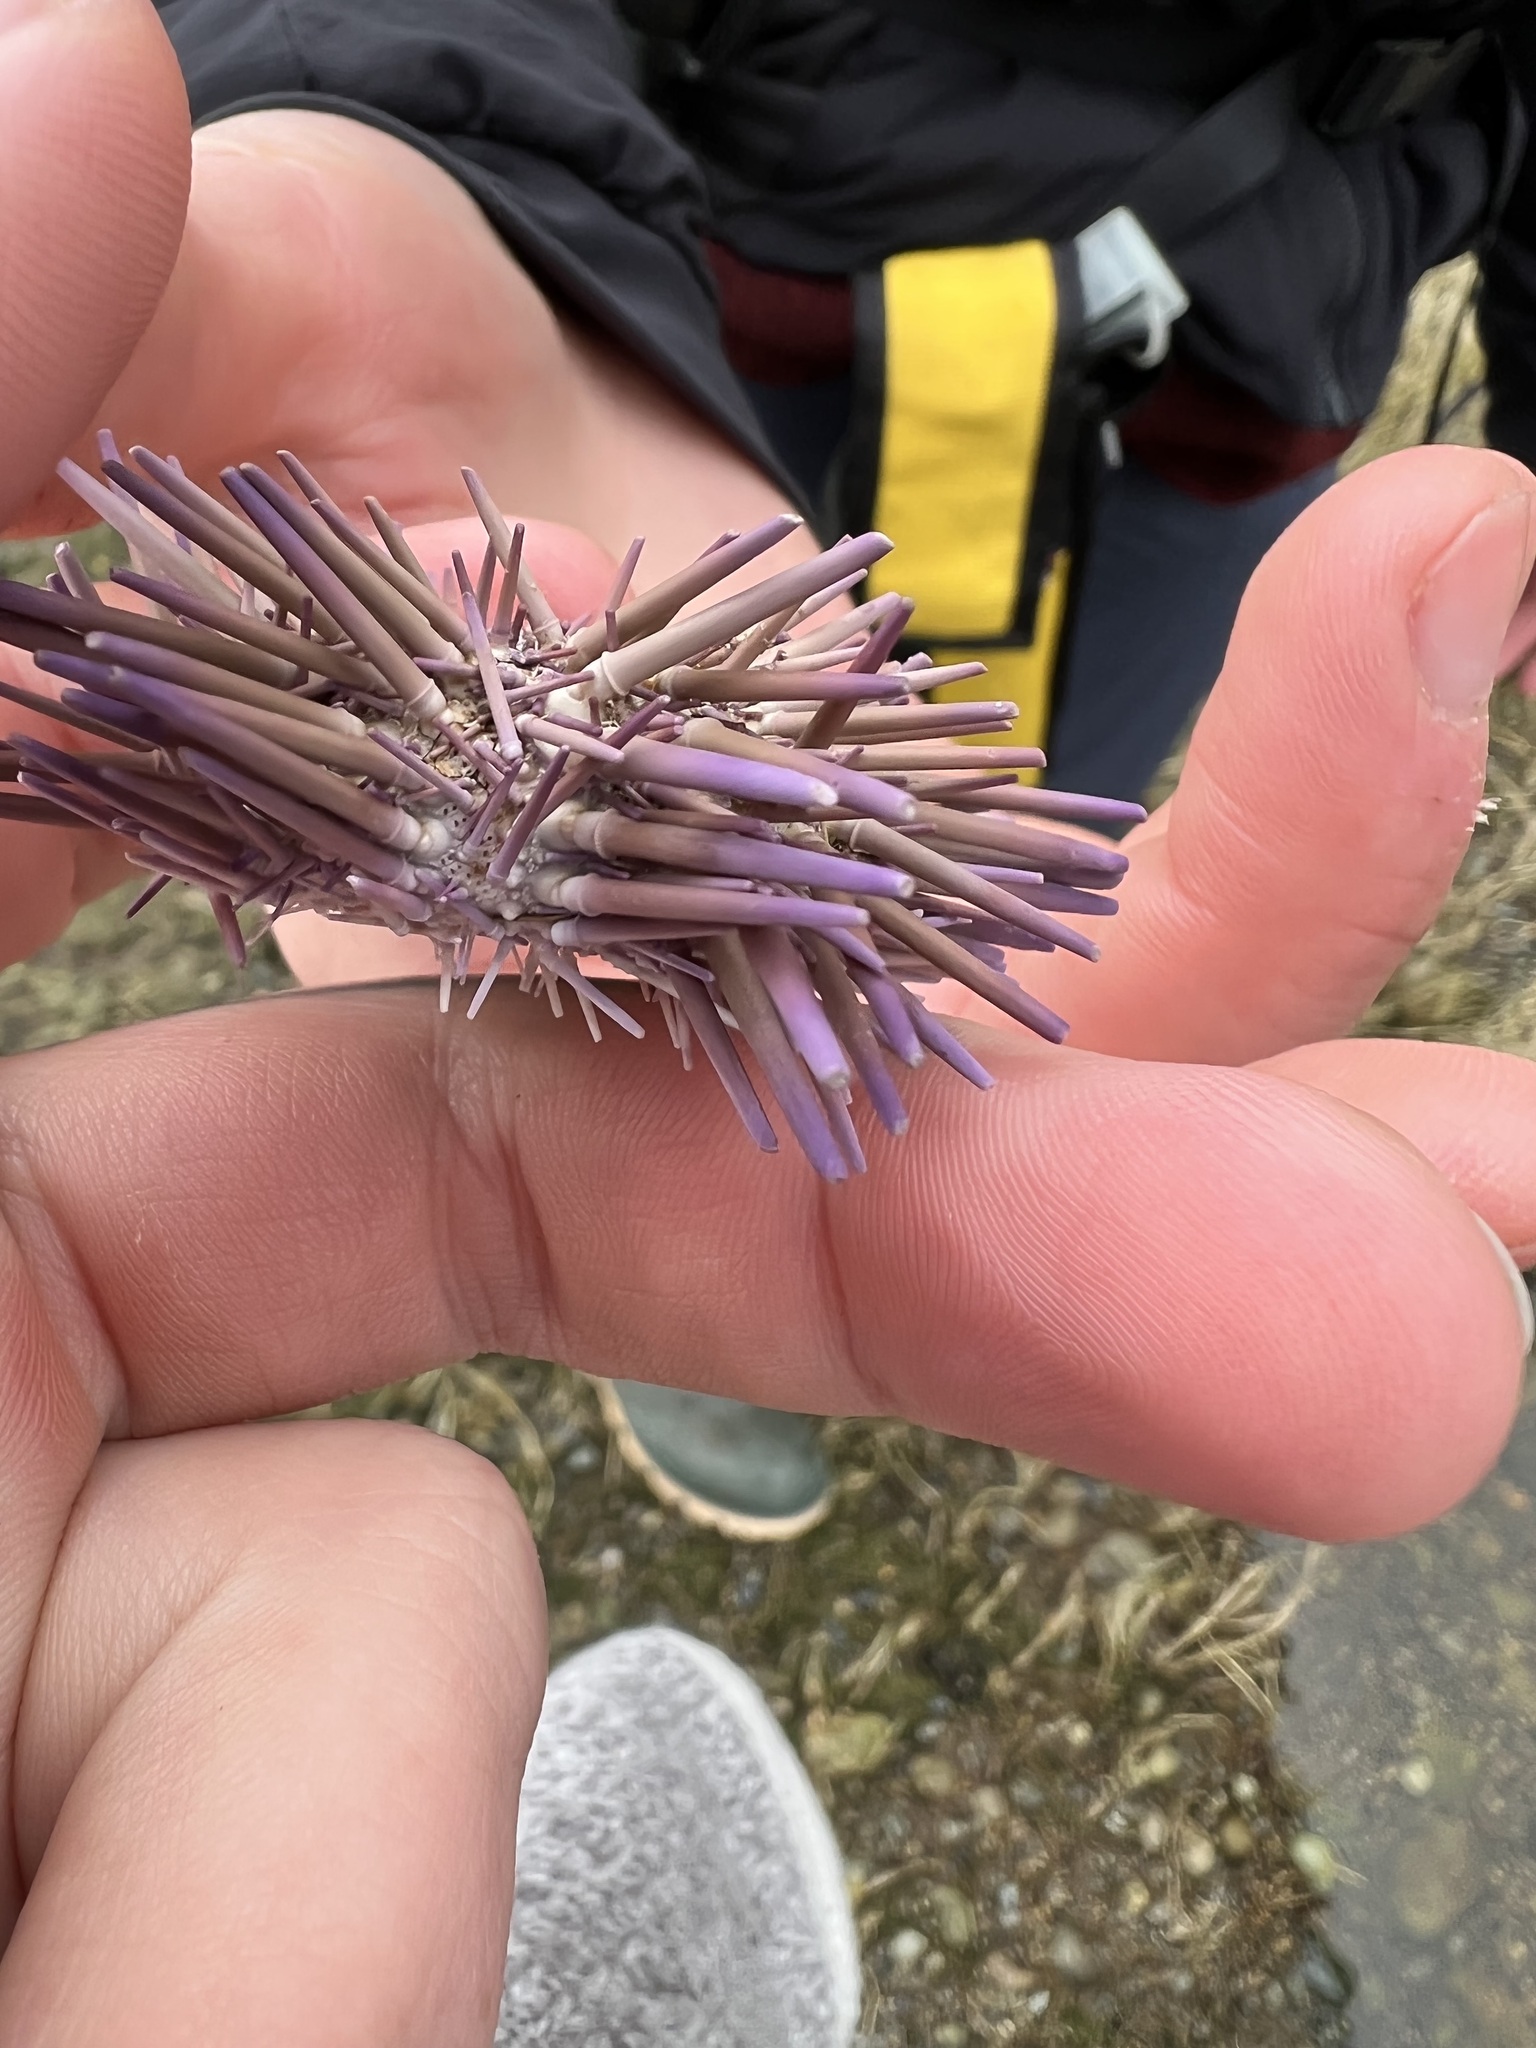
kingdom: Animalia
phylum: Echinodermata
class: Echinoidea
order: Camarodonta
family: Strongylocentrotidae
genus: Strongylocentrotus
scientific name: Strongylocentrotus purpuratus
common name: Purple sea urchin
